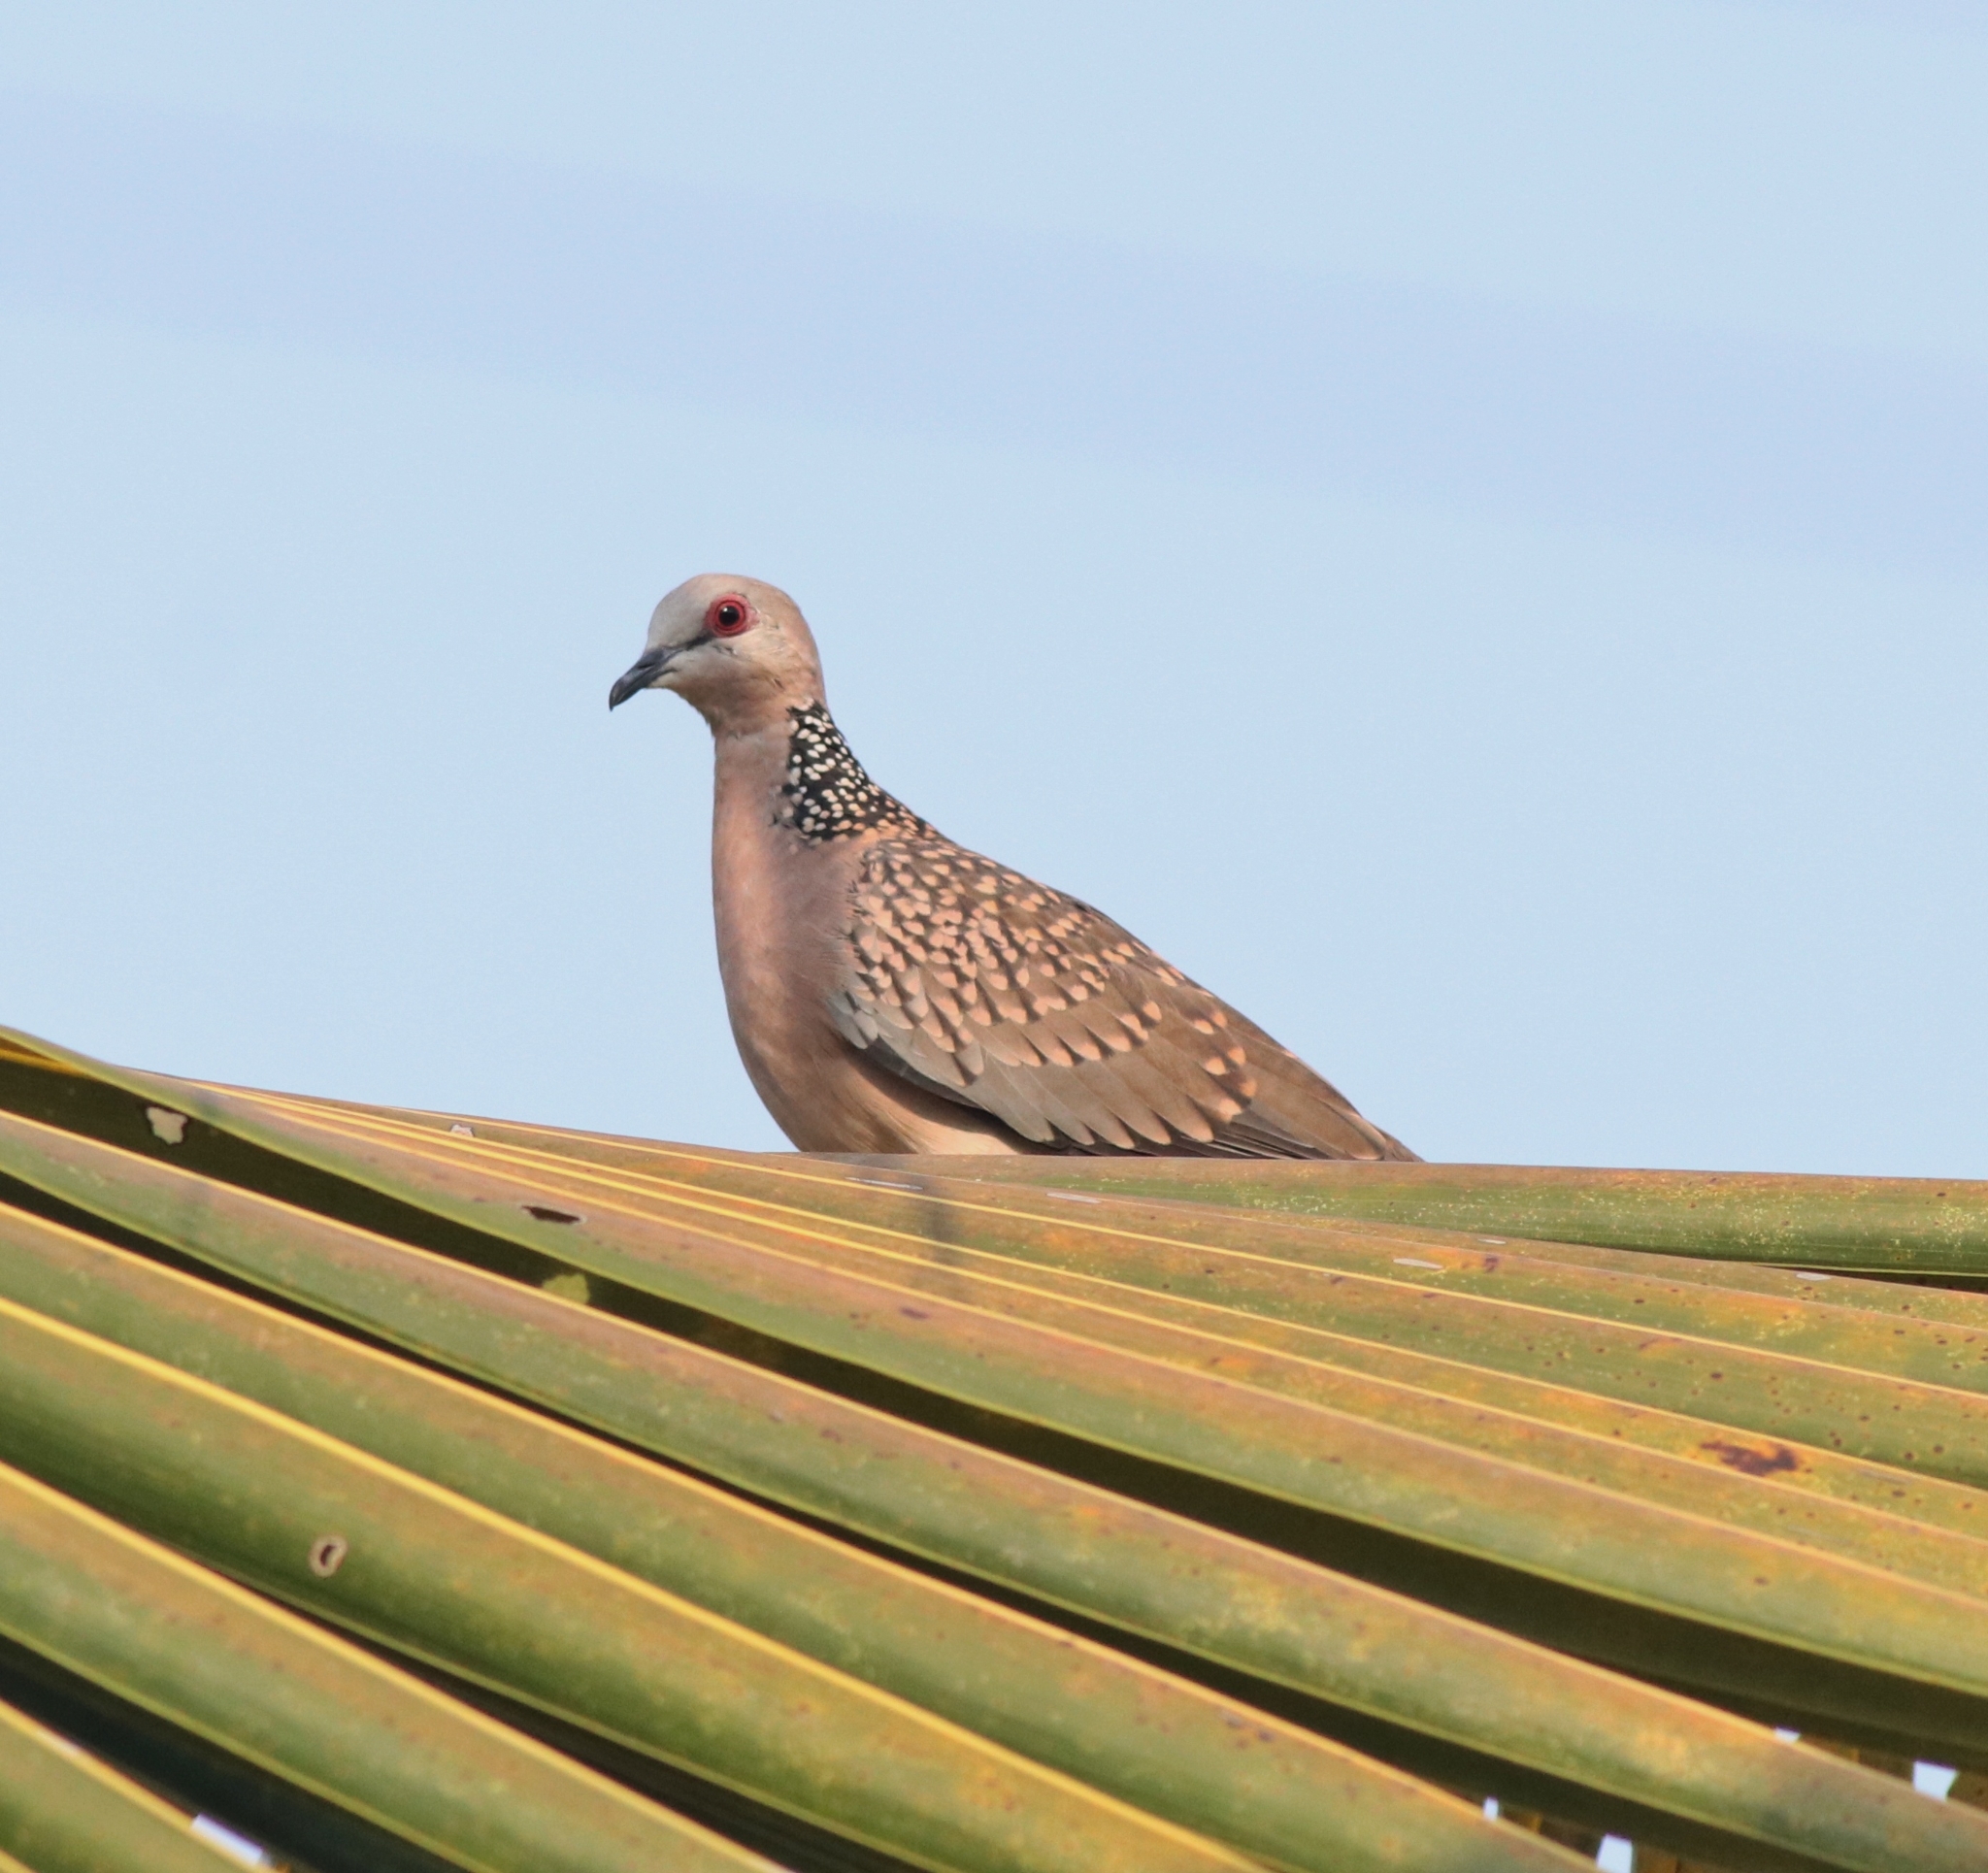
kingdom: Animalia
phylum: Chordata
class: Aves
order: Columbiformes
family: Columbidae
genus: Spilopelia
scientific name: Spilopelia chinensis
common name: Spotted dove
